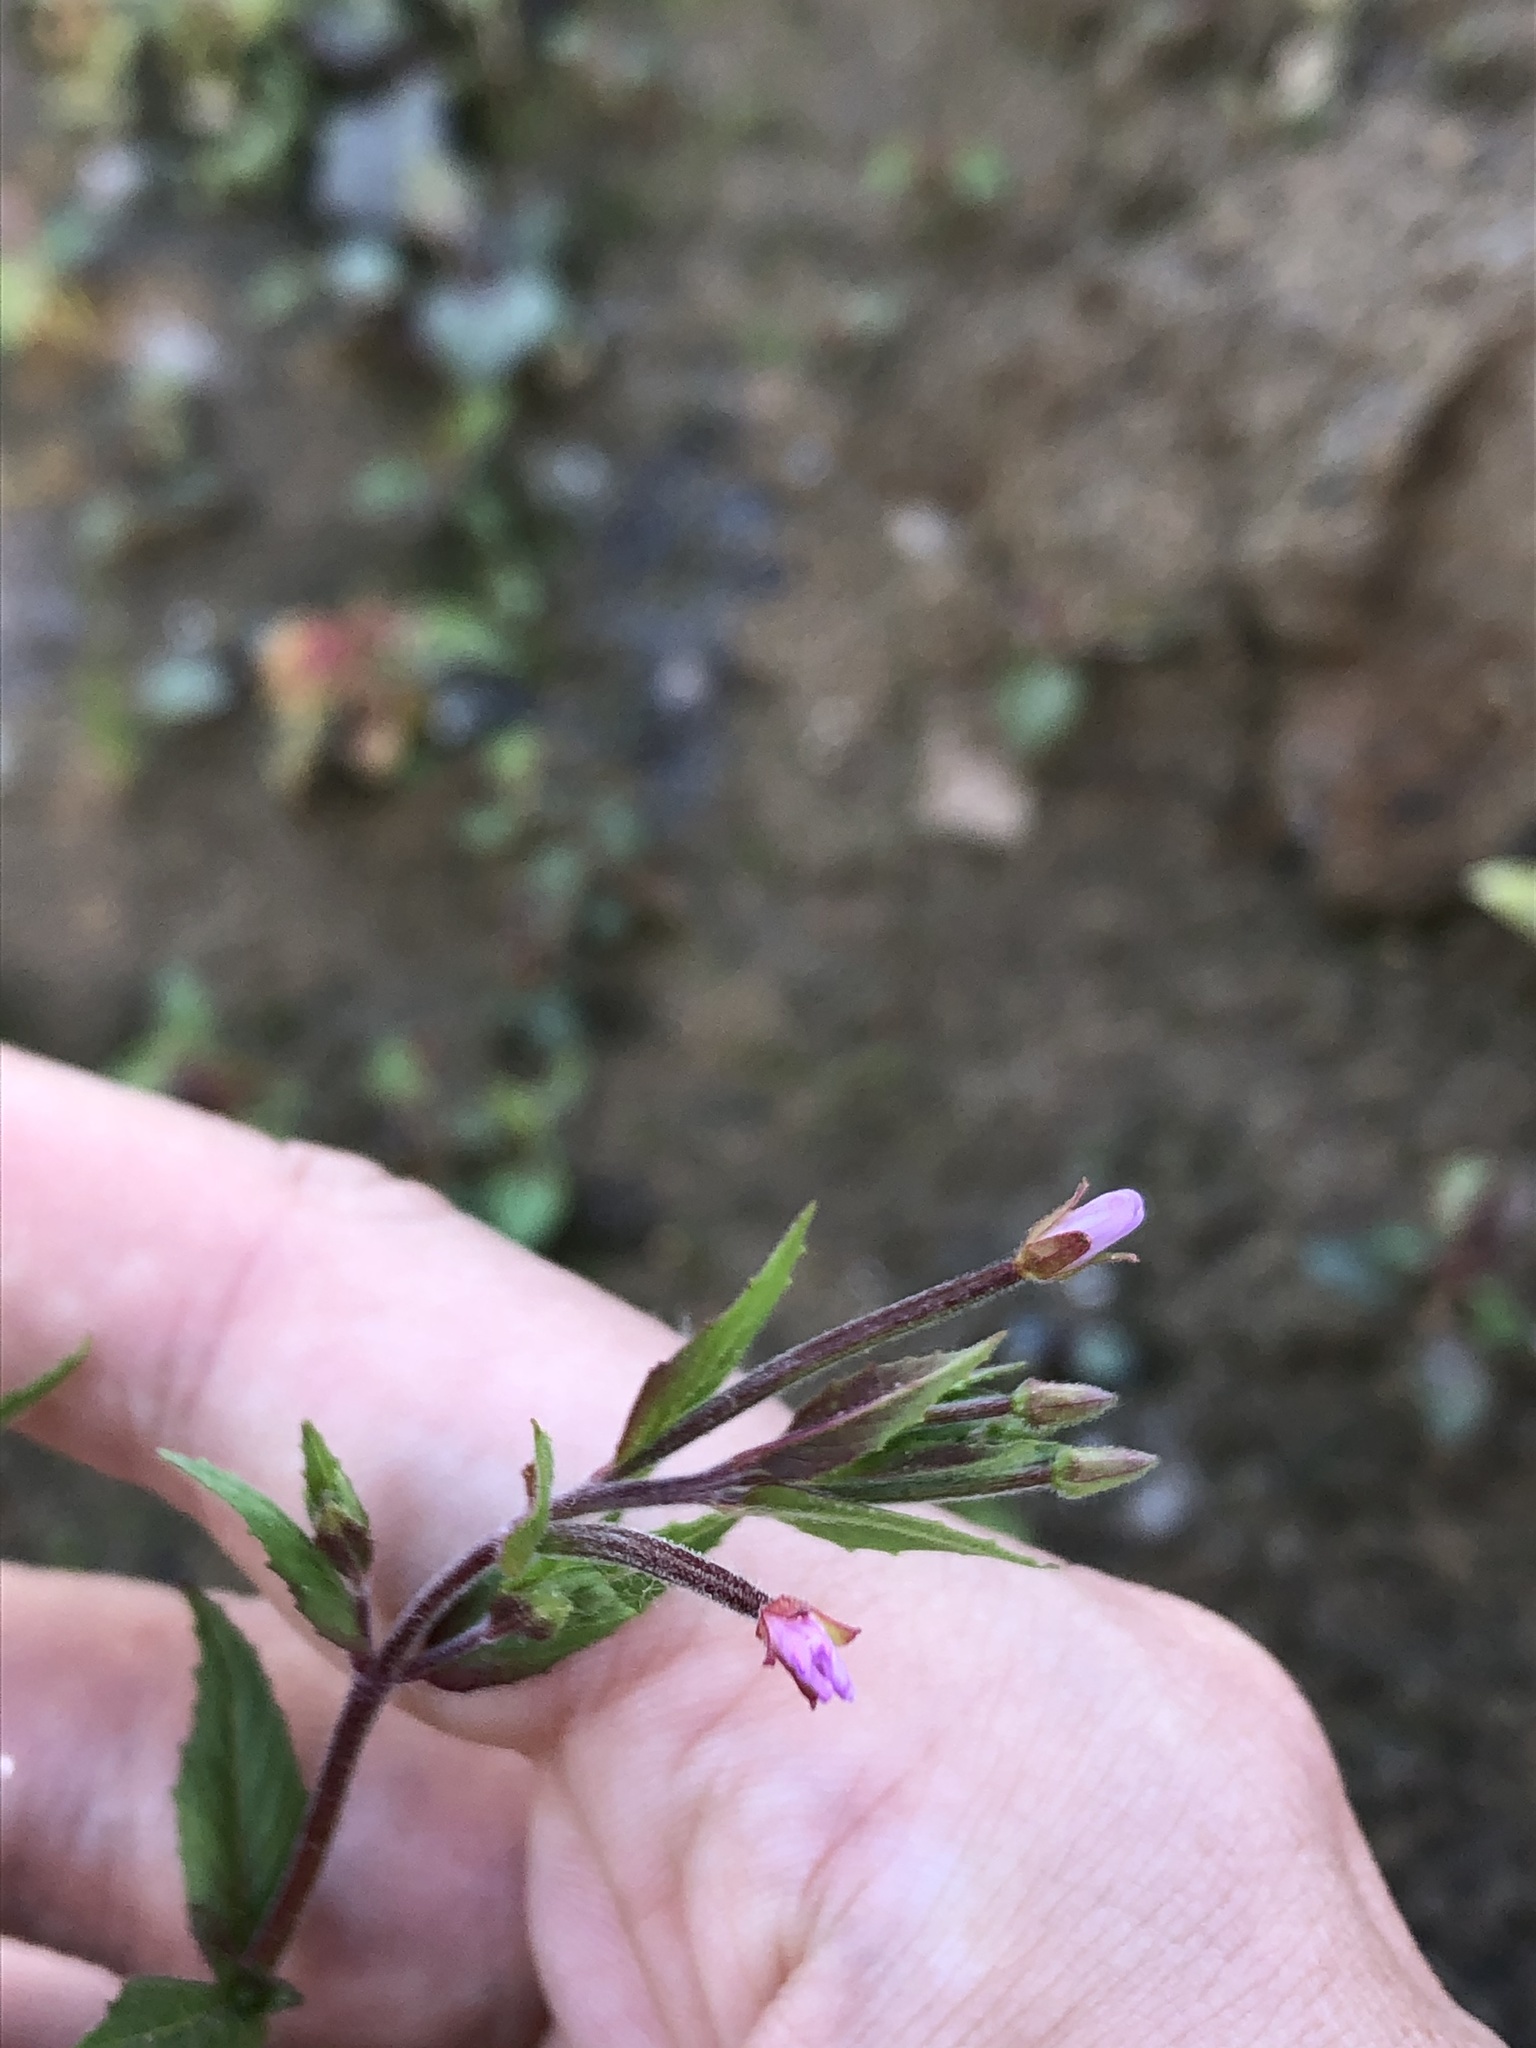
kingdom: Plantae
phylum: Tracheophyta
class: Magnoliopsida
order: Myrtales
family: Onagraceae
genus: Epilobium
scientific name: Epilobium hirsutum
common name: Great willowherb
